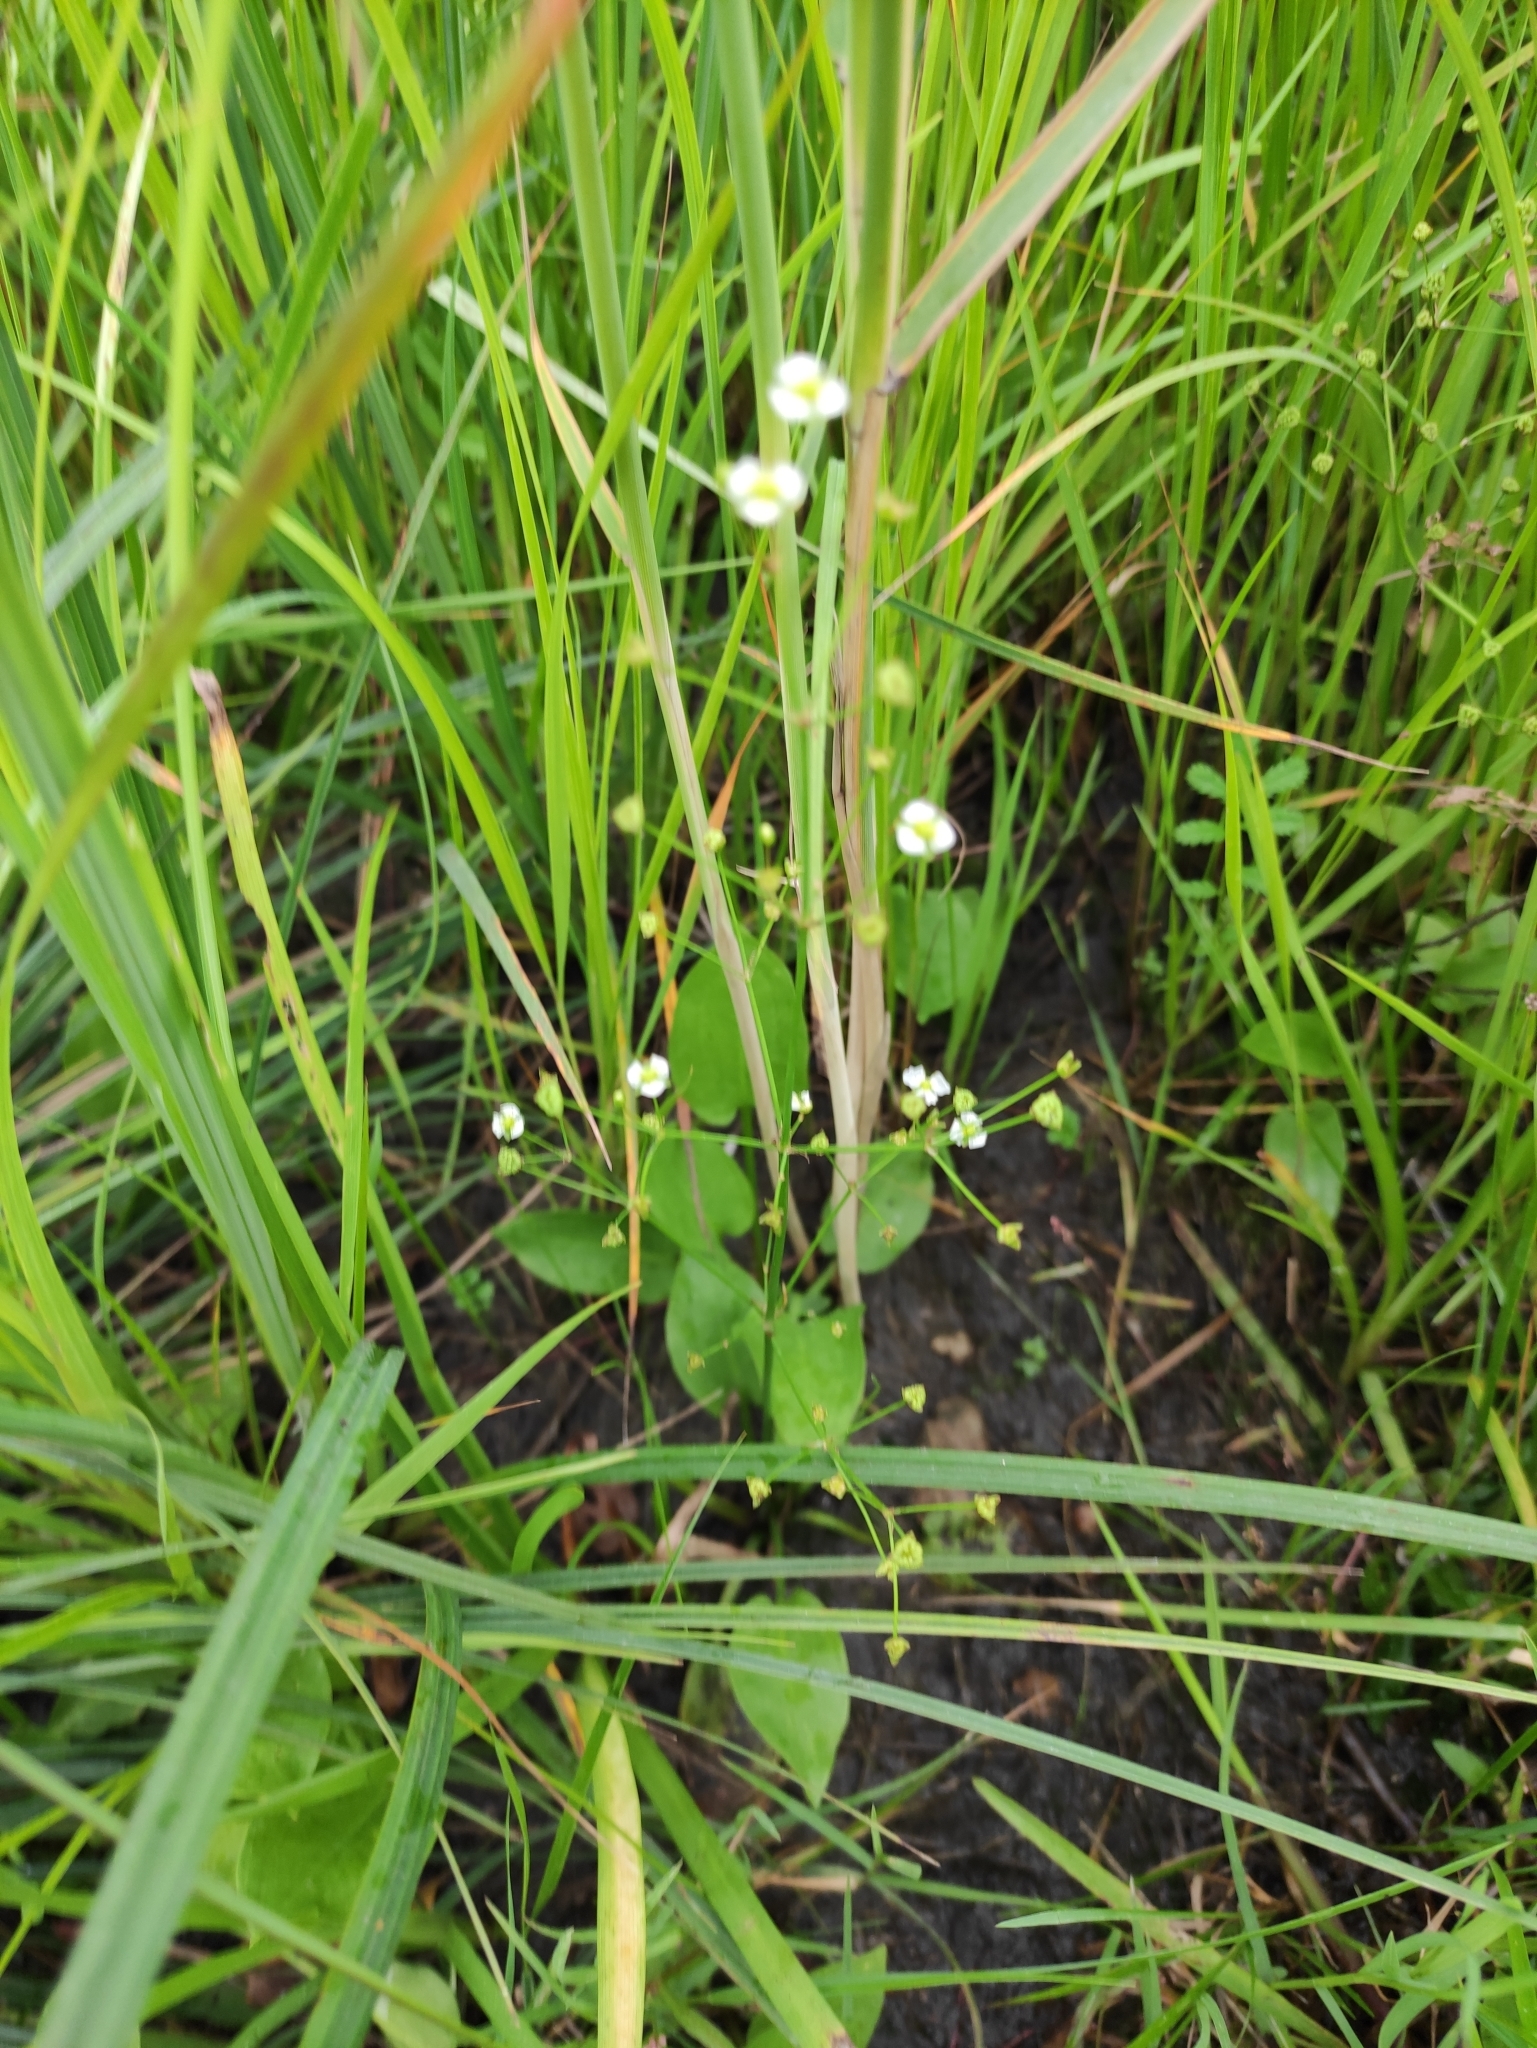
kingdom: Plantae
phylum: Tracheophyta
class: Liliopsida
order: Alismatales
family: Alismataceae
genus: Alisma
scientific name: Alisma plantago-aquatica
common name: Water-plantain
